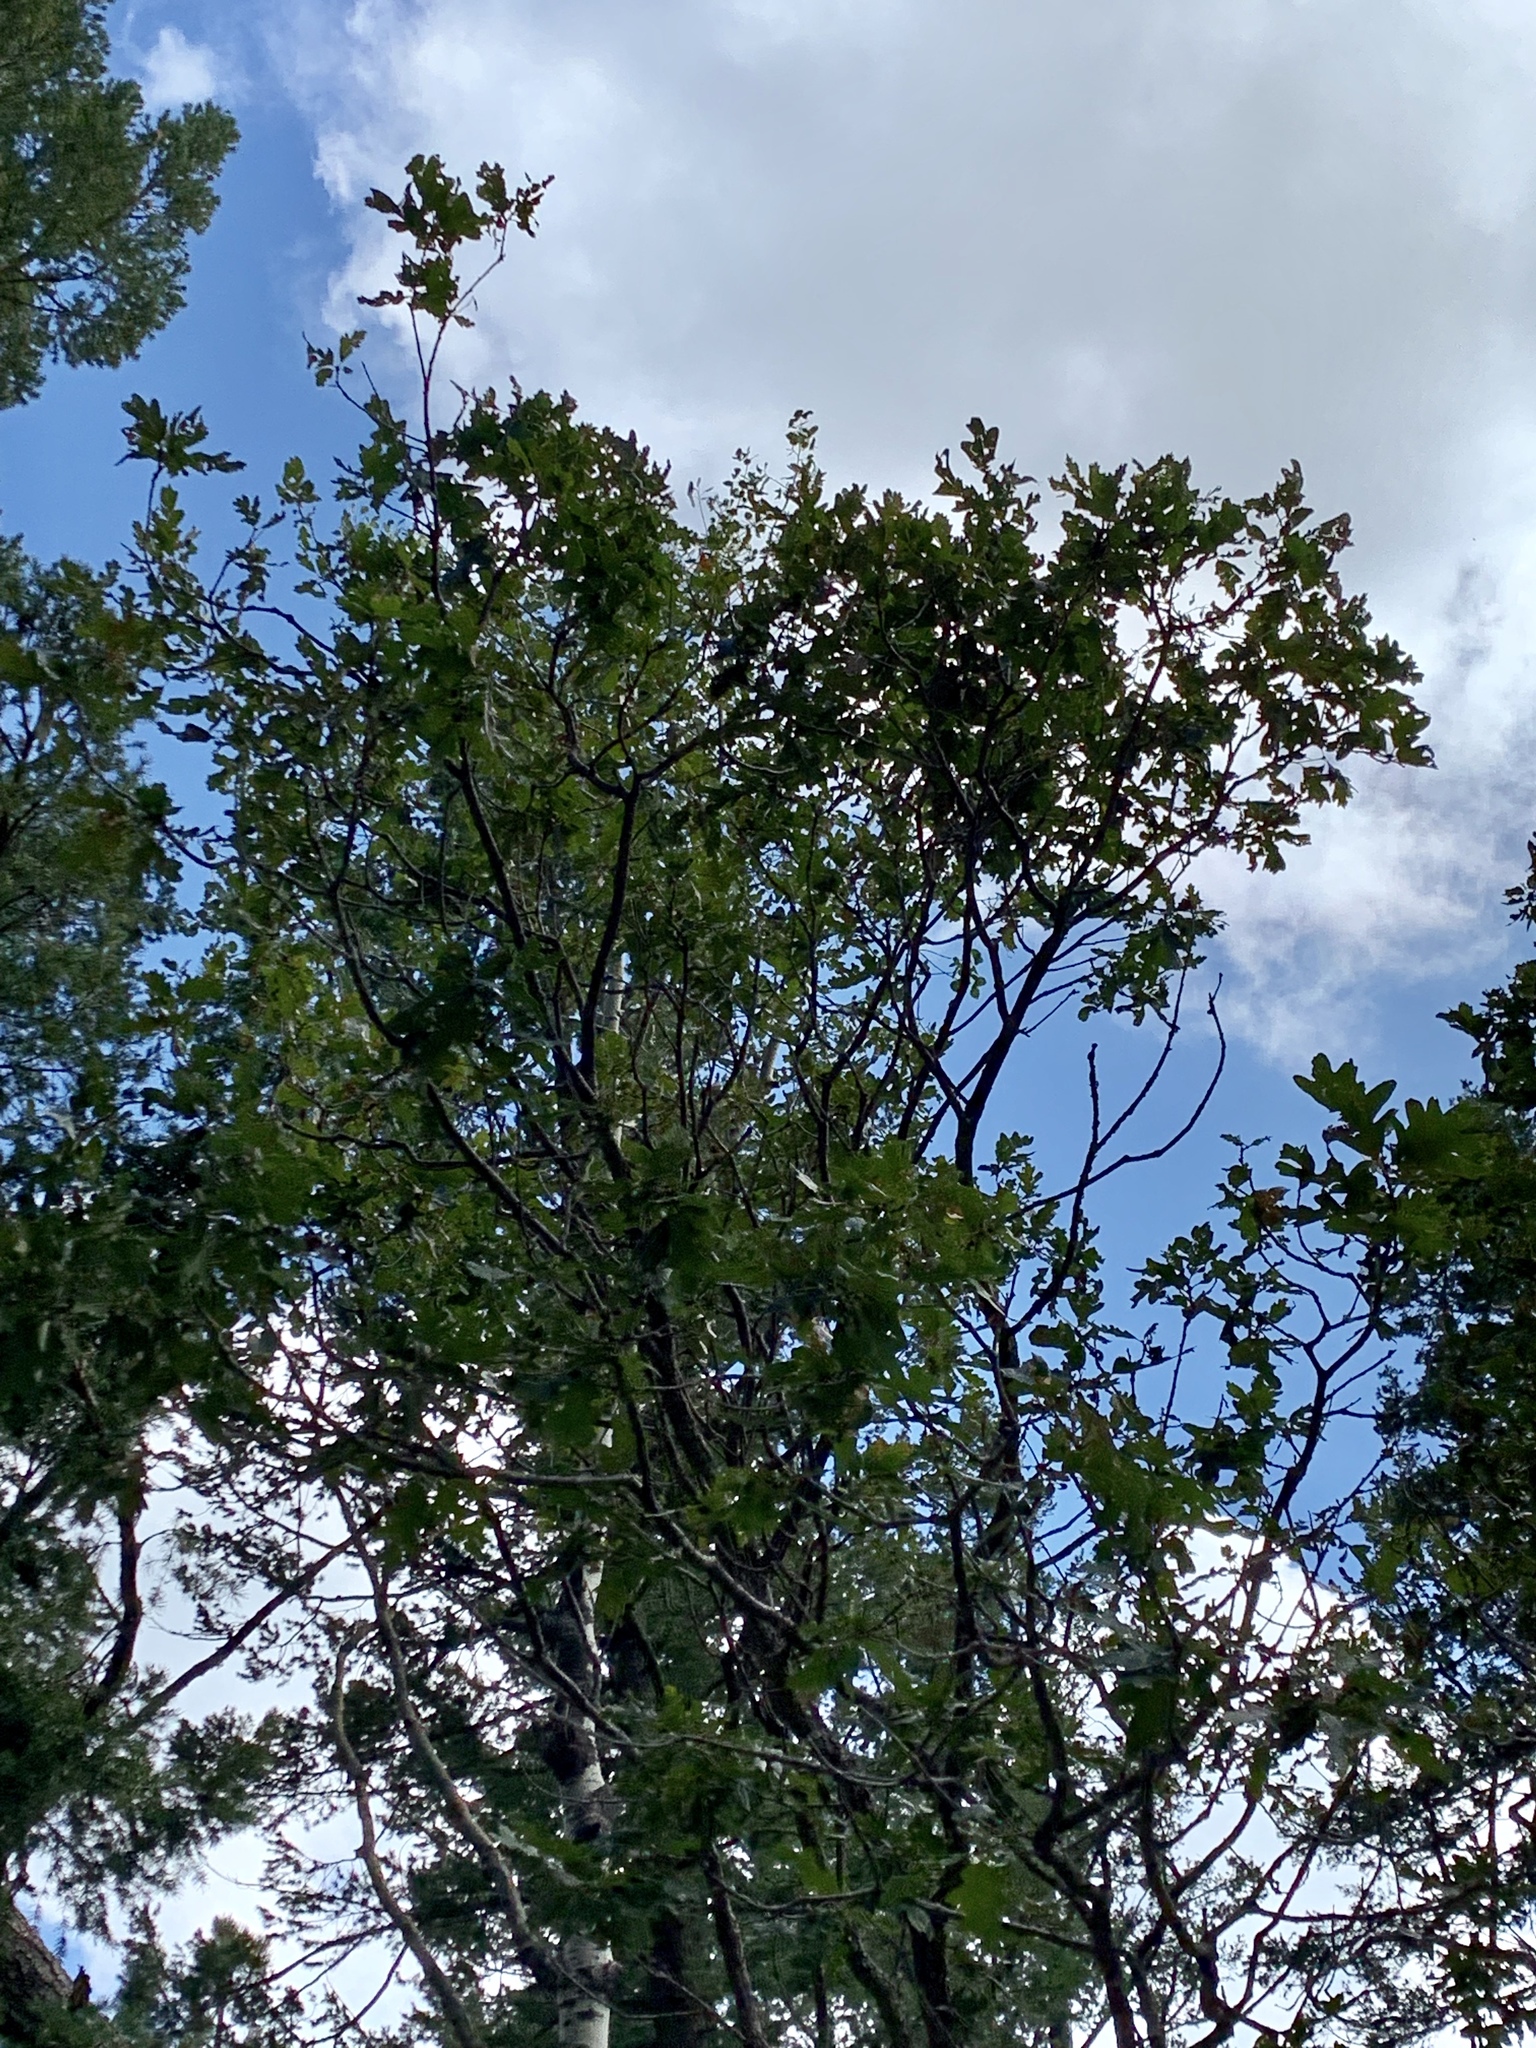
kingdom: Plantae
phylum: Tracheophyta
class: Magnoliopsida
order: Fagales
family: Fagaceae
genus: Quercus
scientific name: Quercus gambelii
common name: Gambel oak
